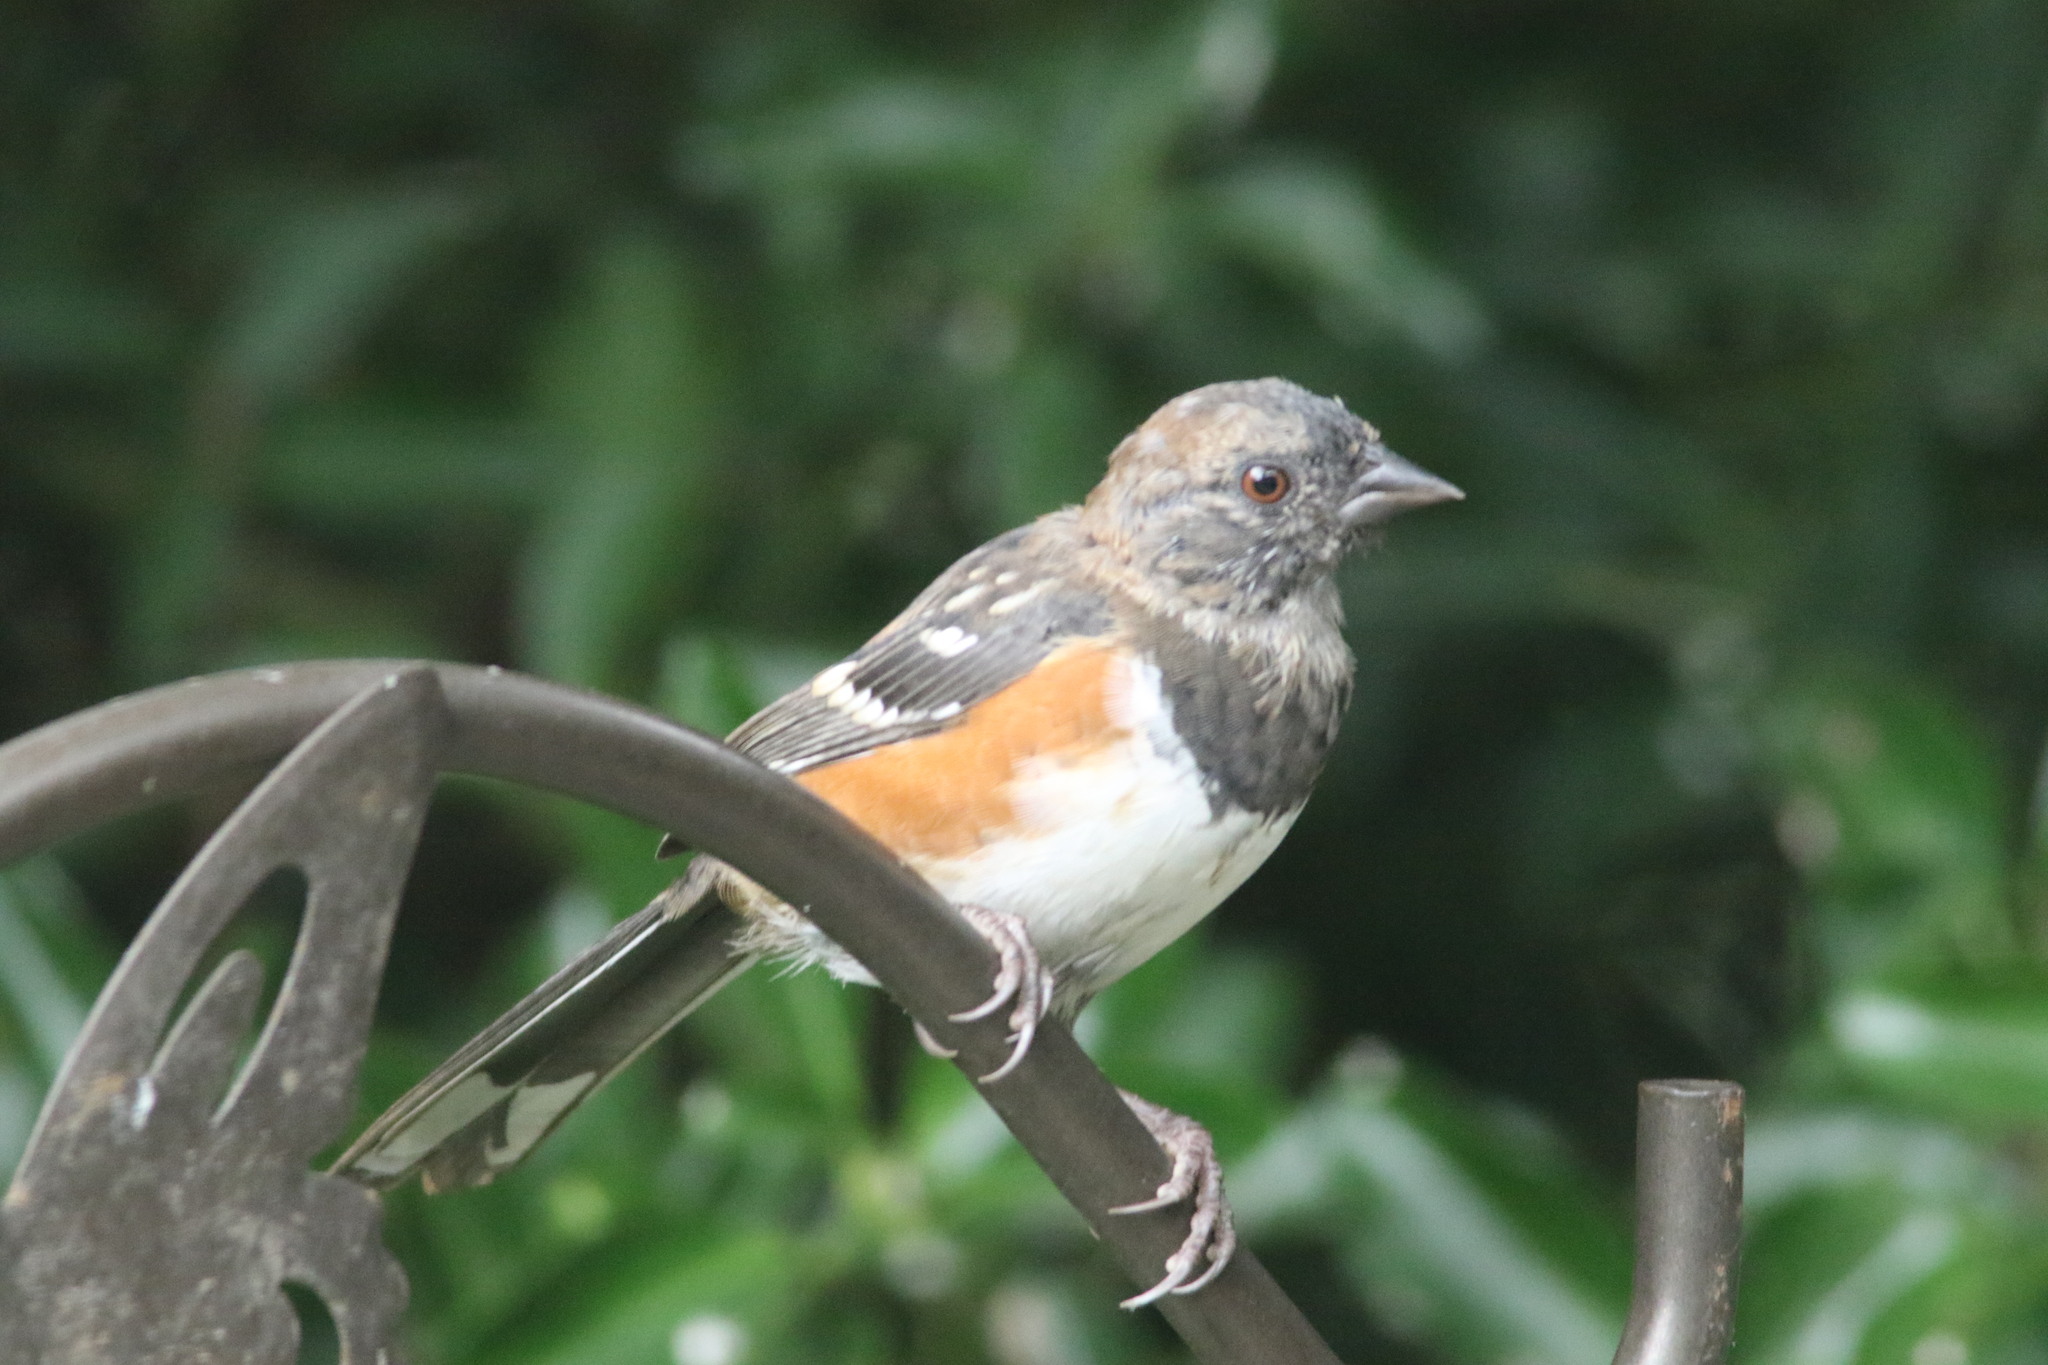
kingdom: Animalia
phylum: Chordata
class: Aves
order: Passeriformes
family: Passerellidae
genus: Pipilo
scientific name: Pipilo maculatus
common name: Spotted towhee
